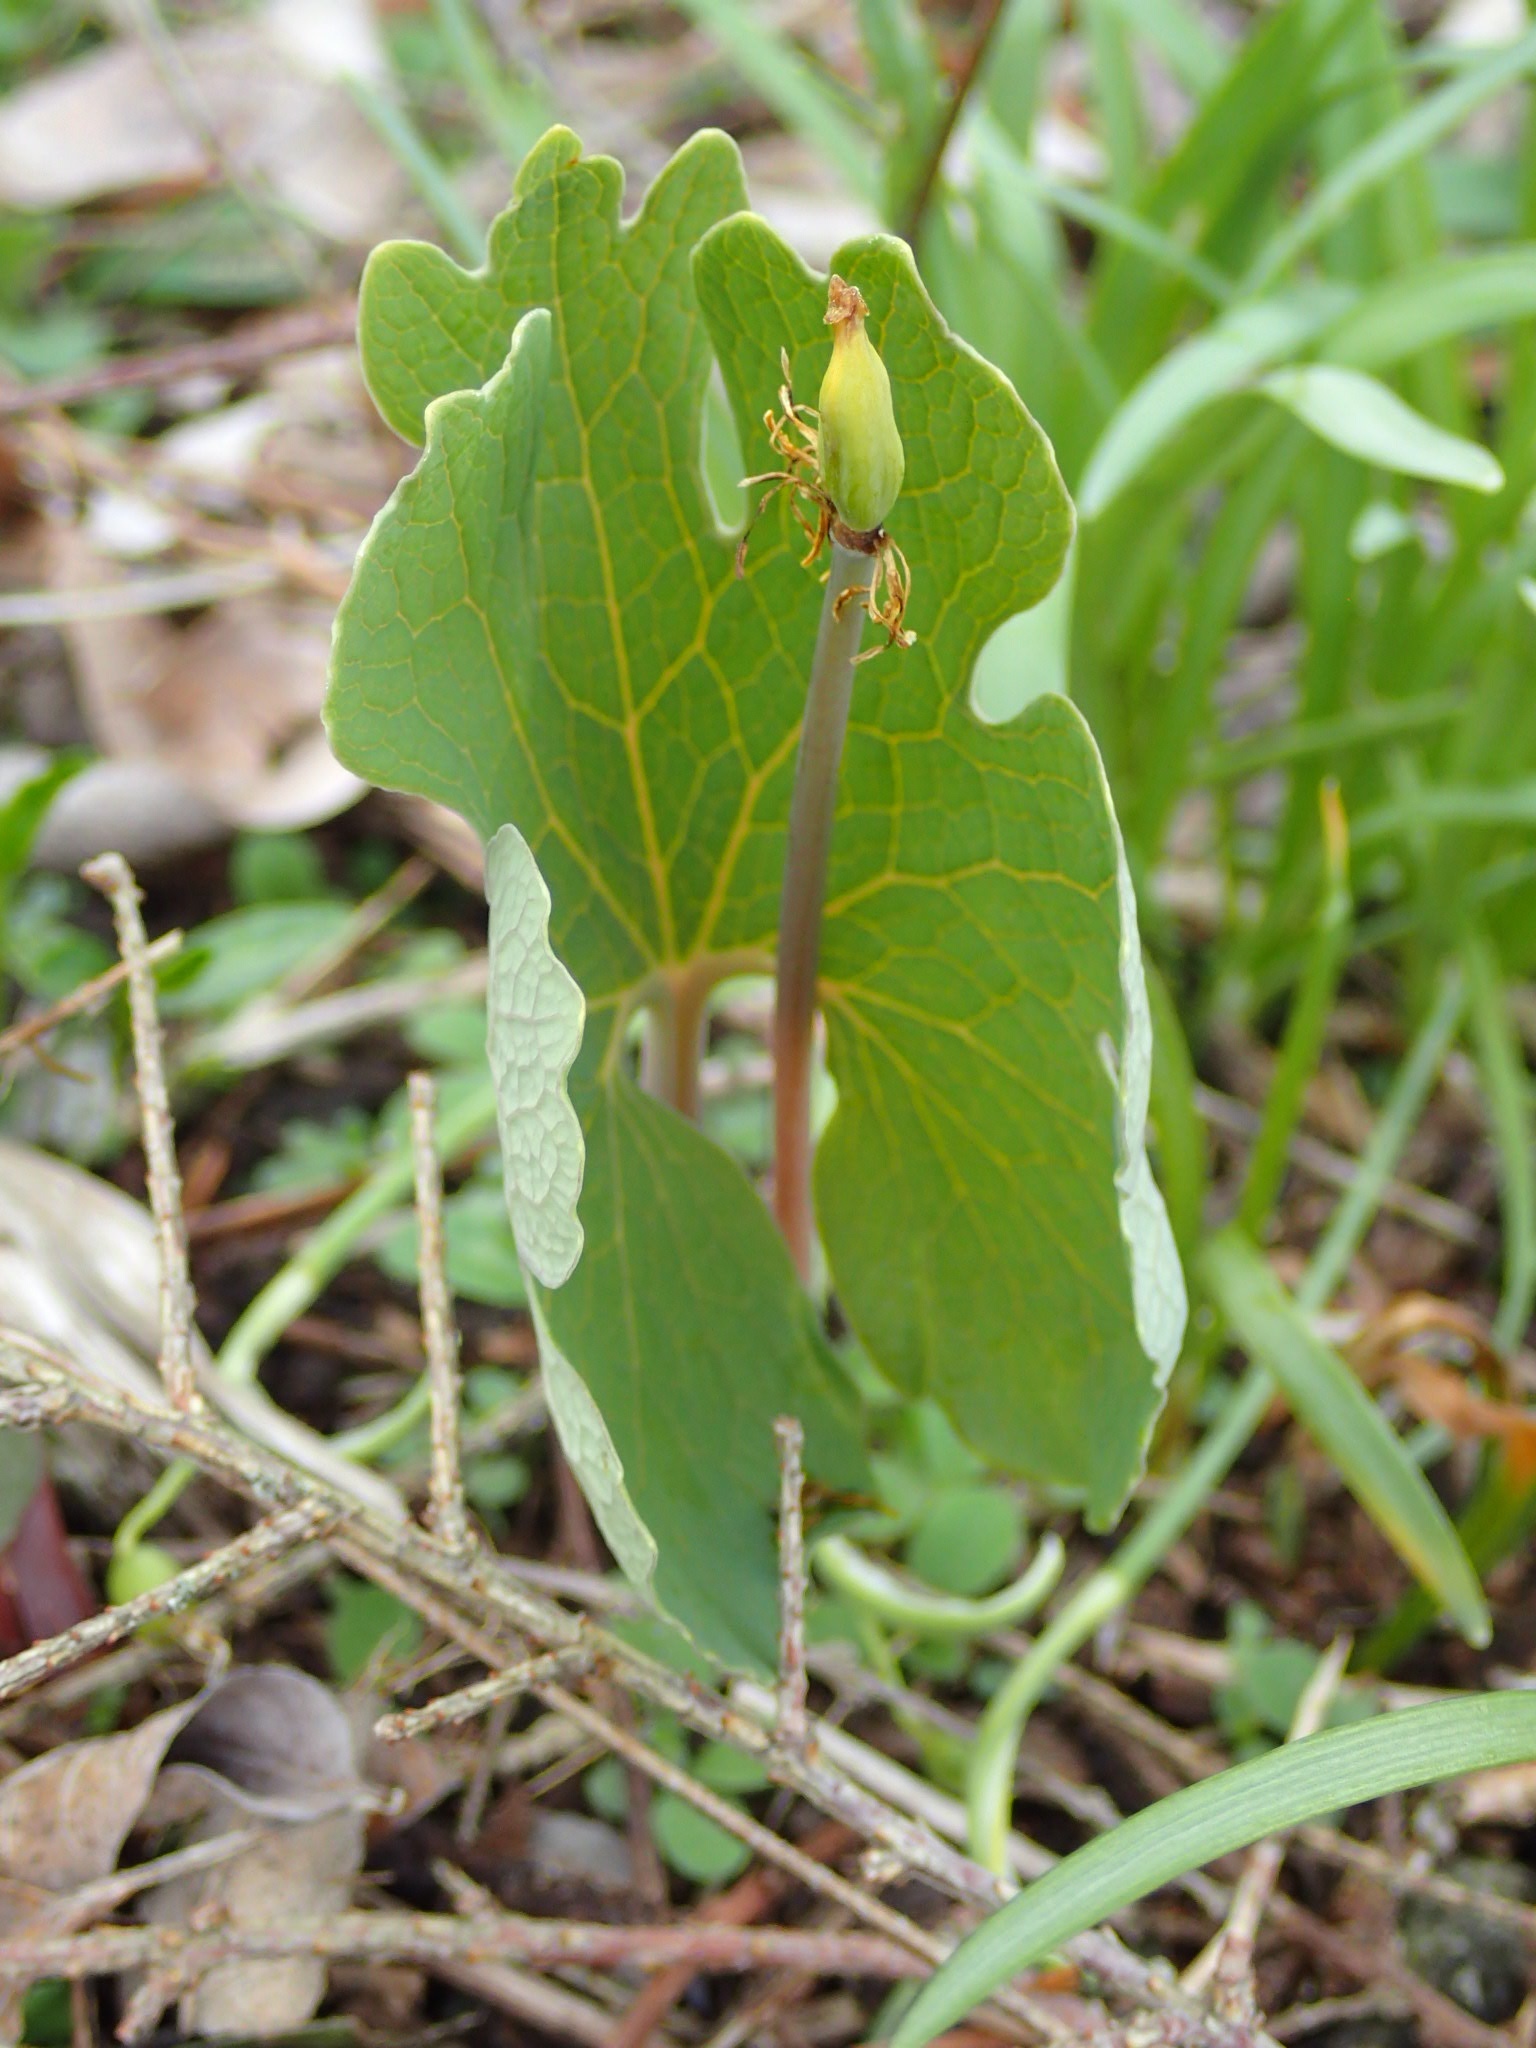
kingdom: Plantae
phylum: Tracheophyta
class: Magnoliopsida
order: Ranunculales
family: Papaveraceae
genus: Sanguinaria
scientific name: Sanguinaria canadensis
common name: Bloodroot
